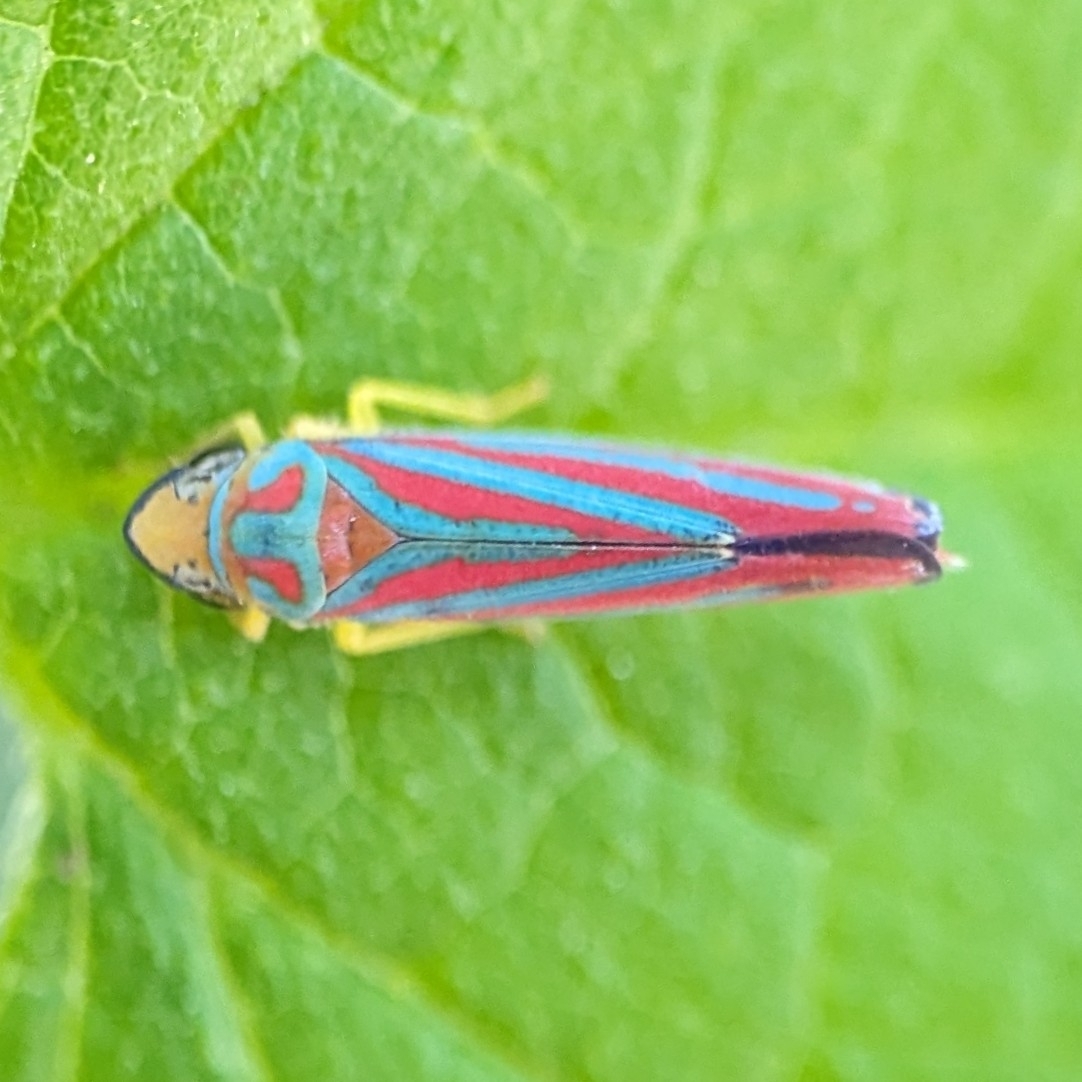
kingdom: Animalia
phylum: Arthropoda
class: Insecta
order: Hemiptera
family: Cicadellidae
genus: Graphocephala
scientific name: Graphocephala coccinea
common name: Candy-striped leafhopper
